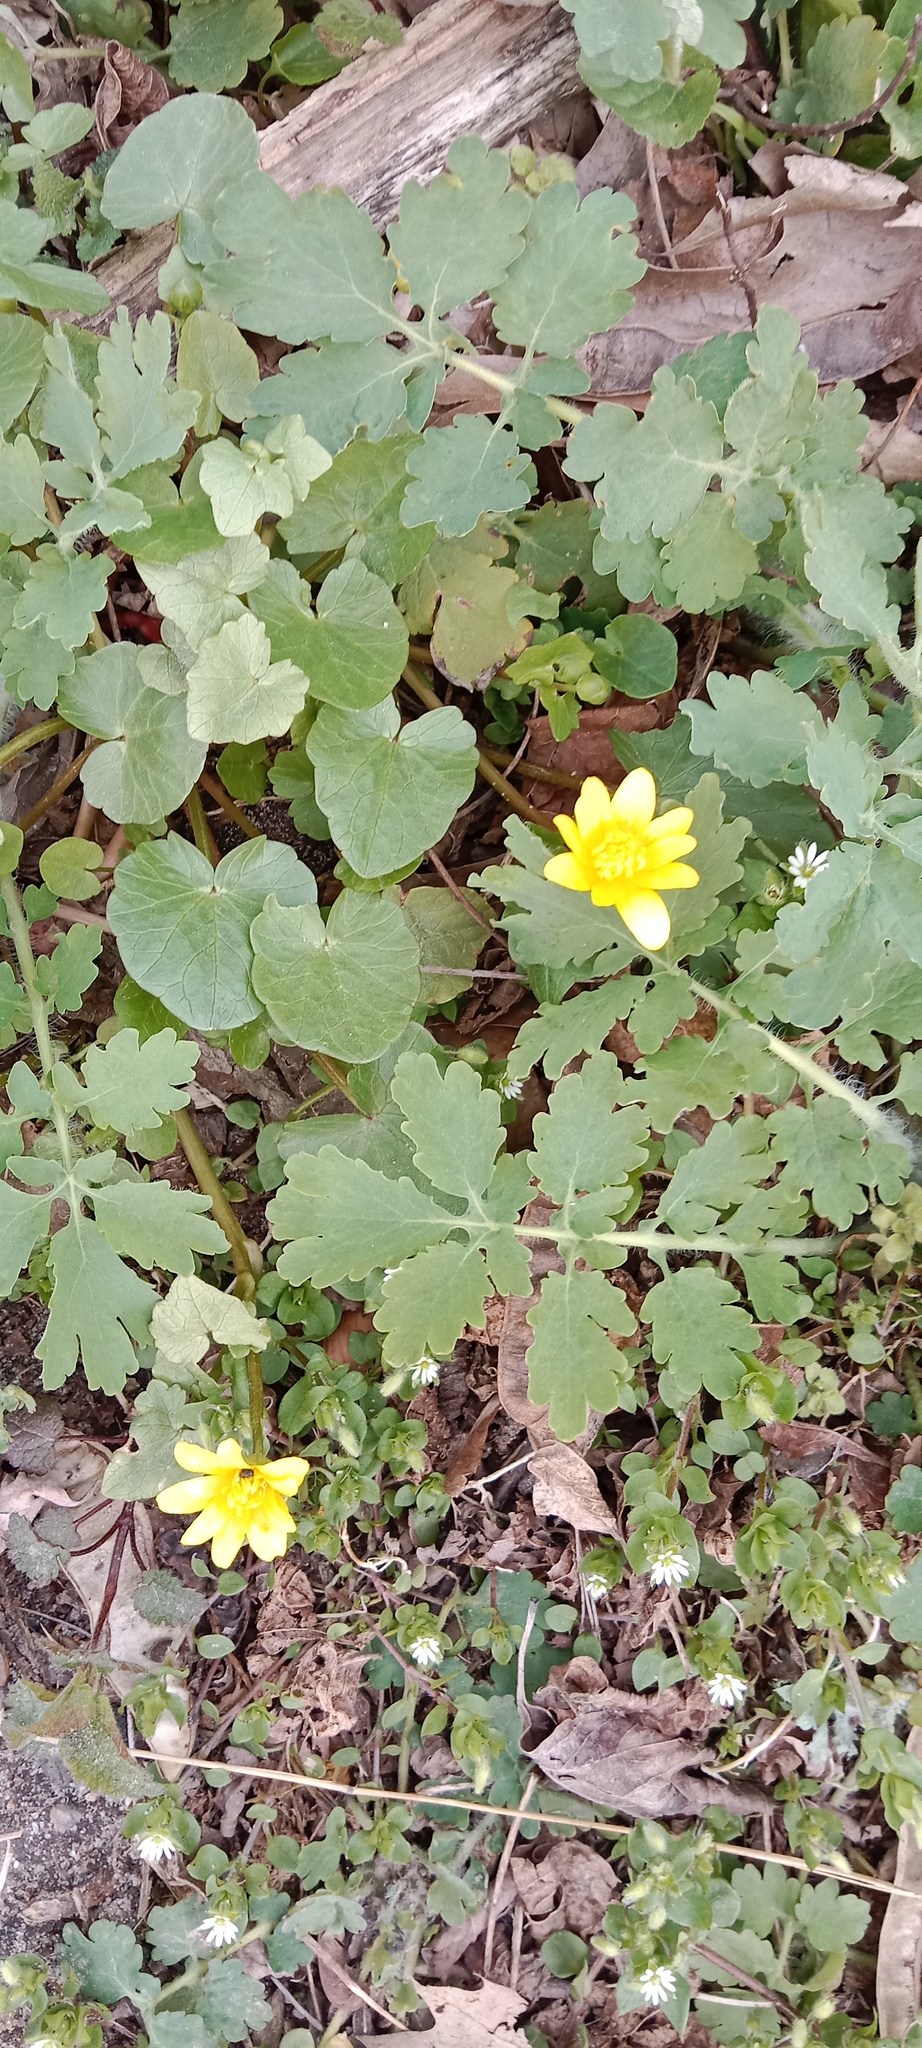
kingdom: Plantae
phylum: Tracheophyta
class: Magnoliopsida
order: Ranunculales
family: Papaveraceae
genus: Chelidonium
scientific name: Chelidonium majus
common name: Greater celandine
